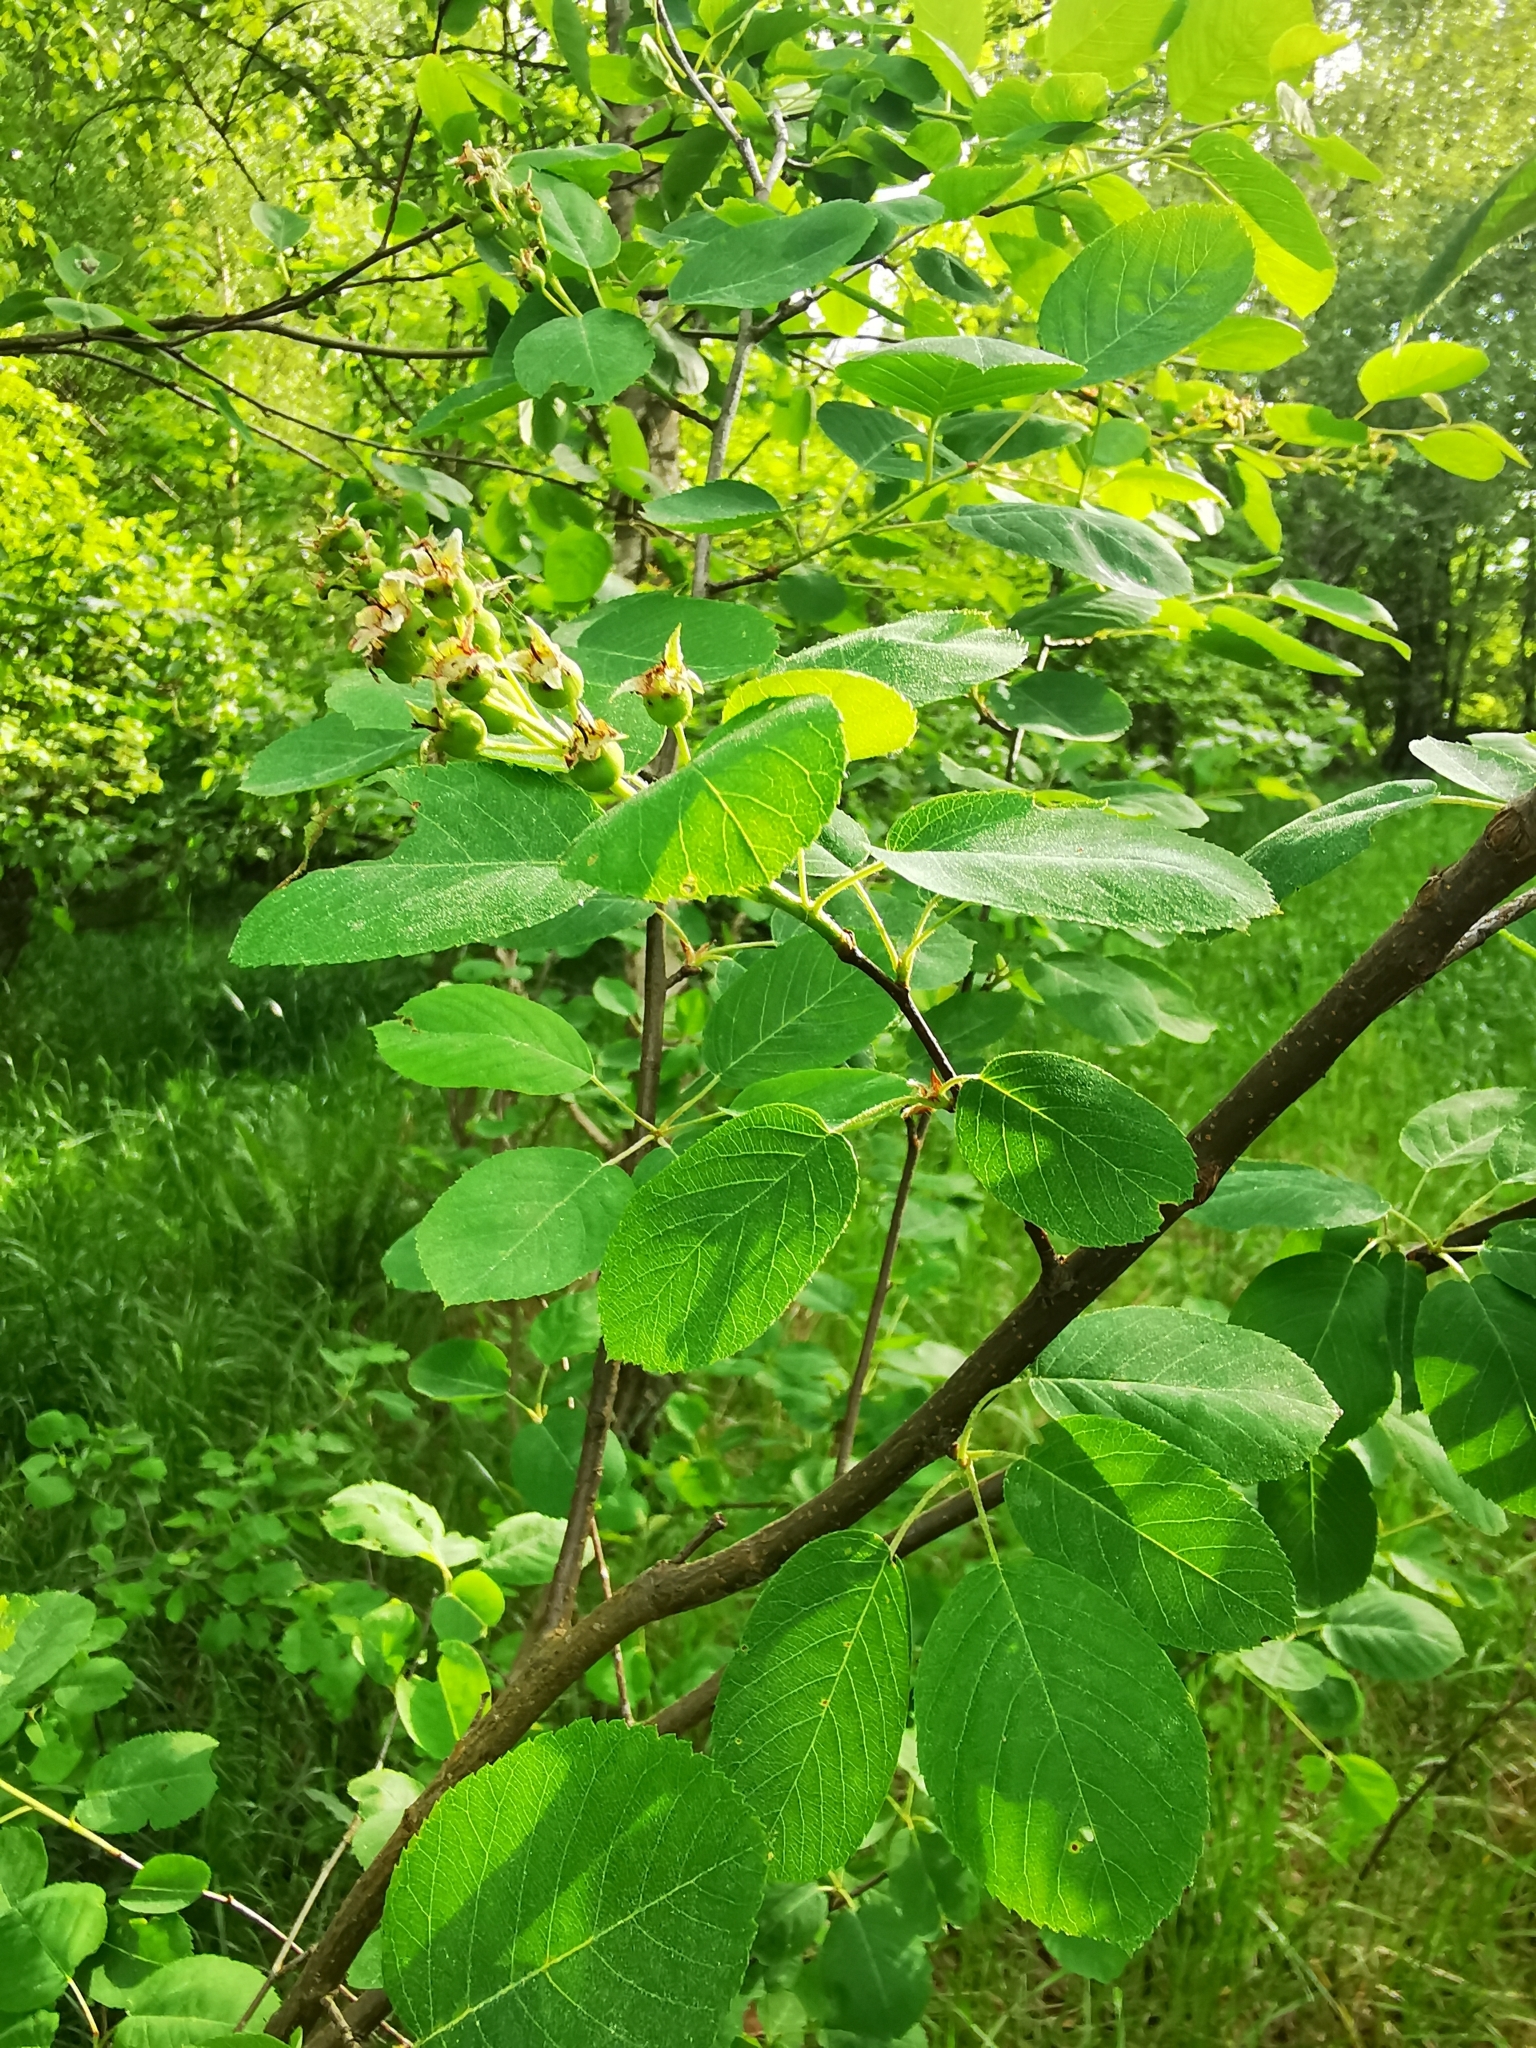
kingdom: Plantae
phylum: Tracheophyta
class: Magnoliopsida
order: Rosales
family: Rosaceae
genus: Amelanchier
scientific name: Amelanchier
